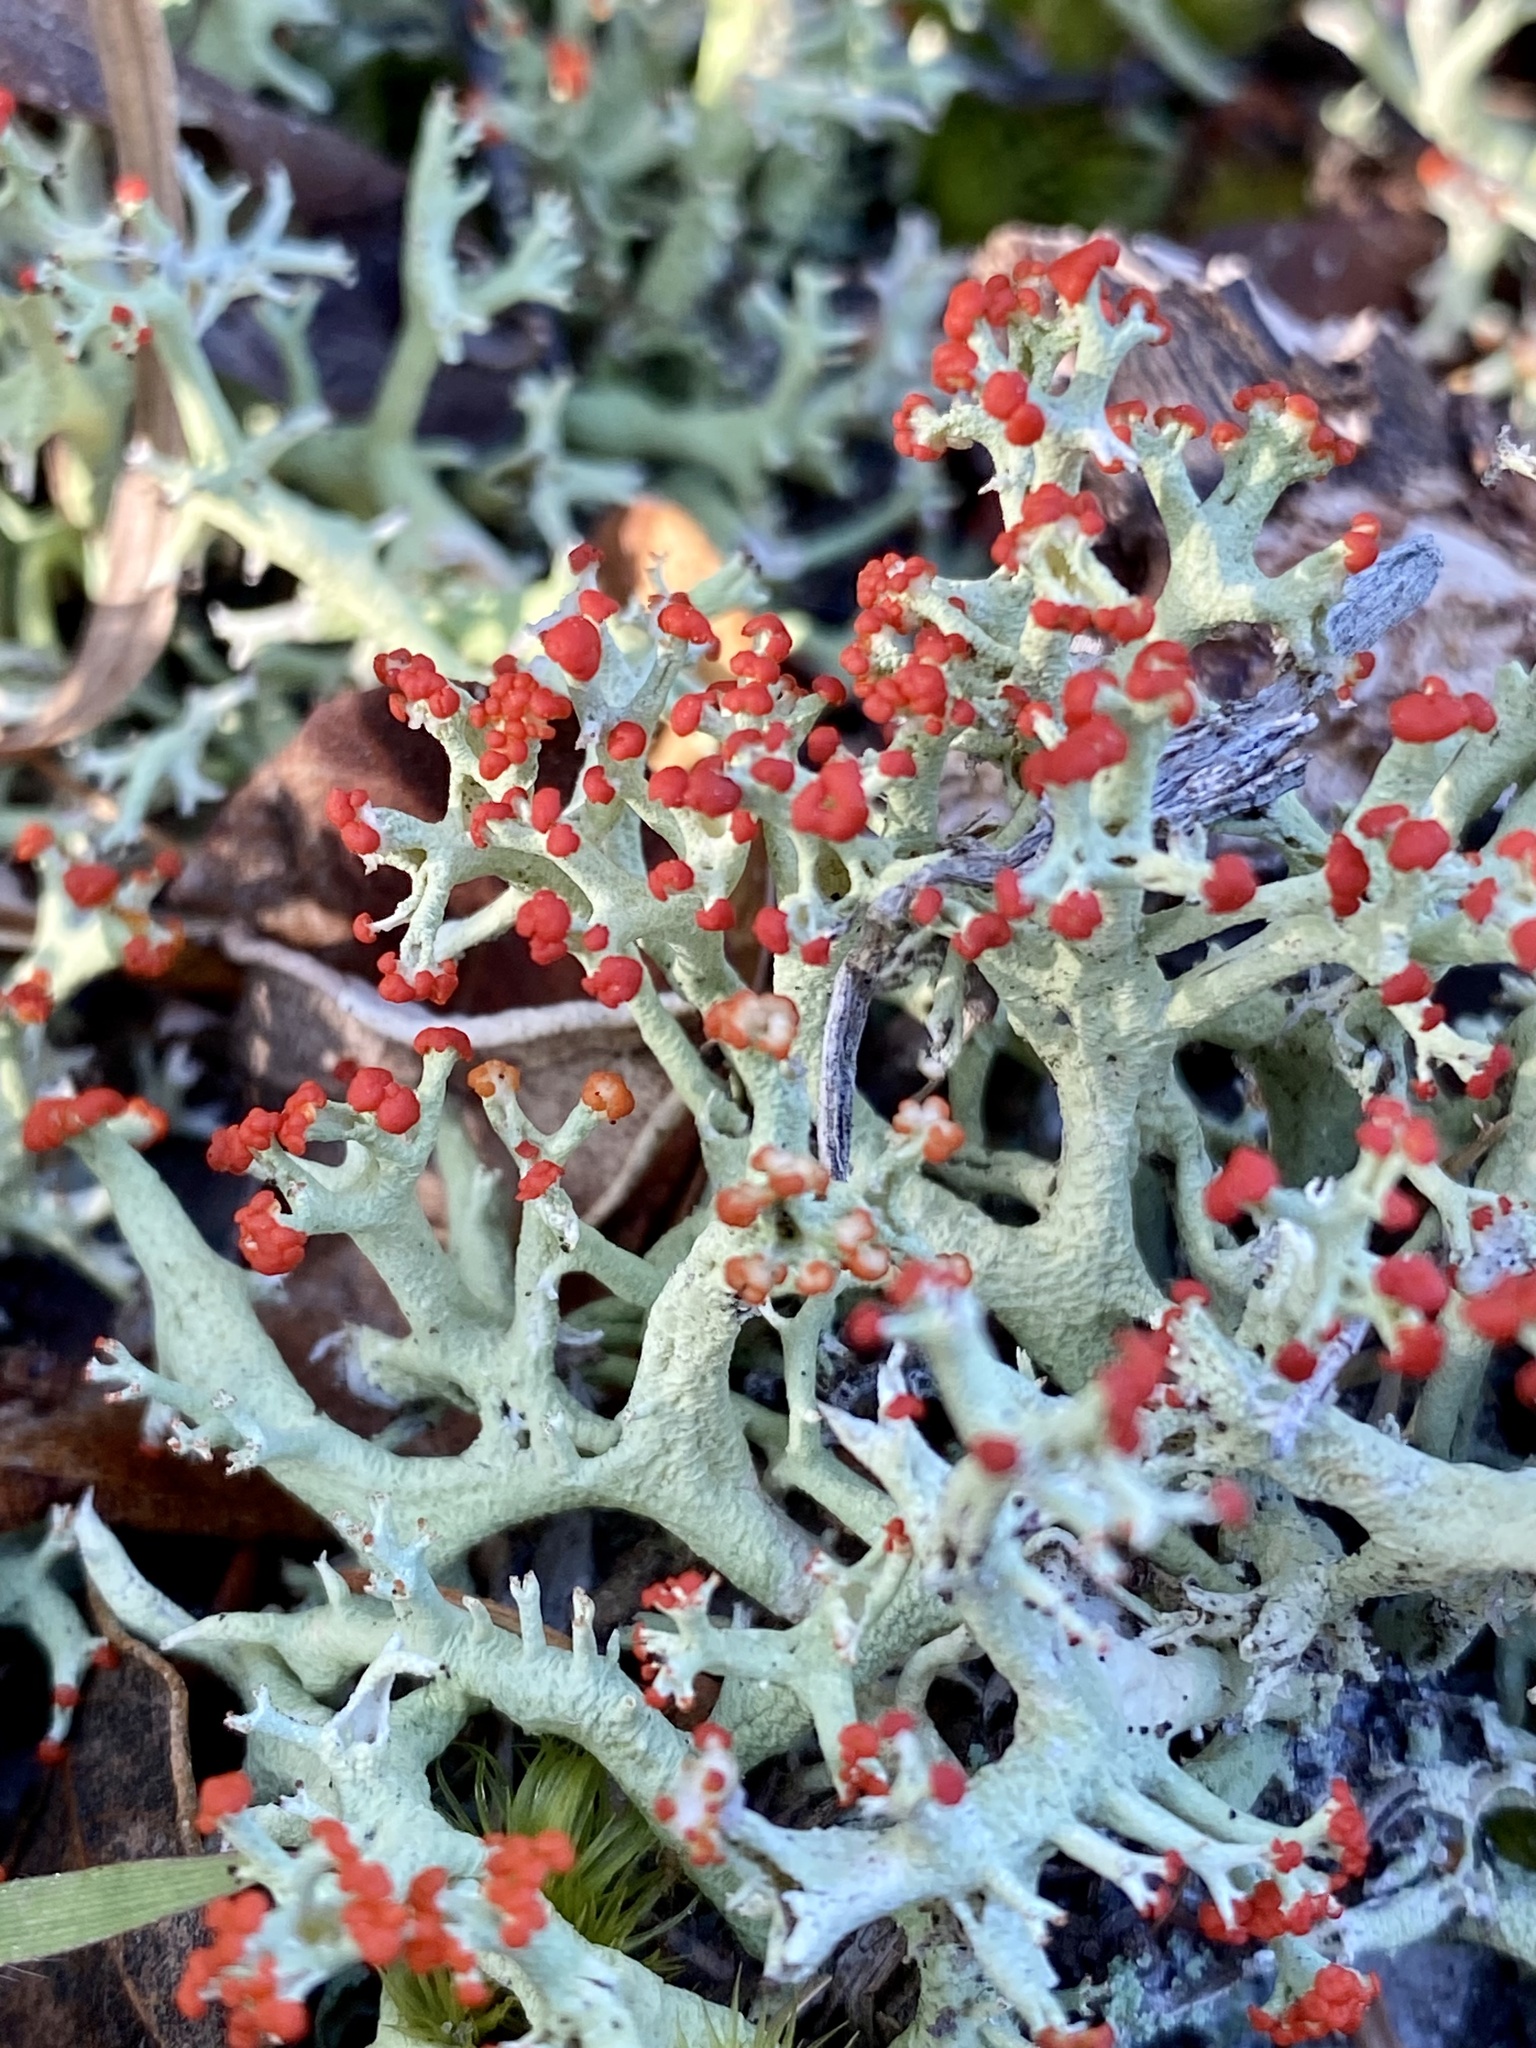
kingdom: Fungi
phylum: Ascomycota
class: Lecanoromycetes
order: Lecanorales
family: Cladoniaceae
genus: Cladonia
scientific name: Cladonia leporina
